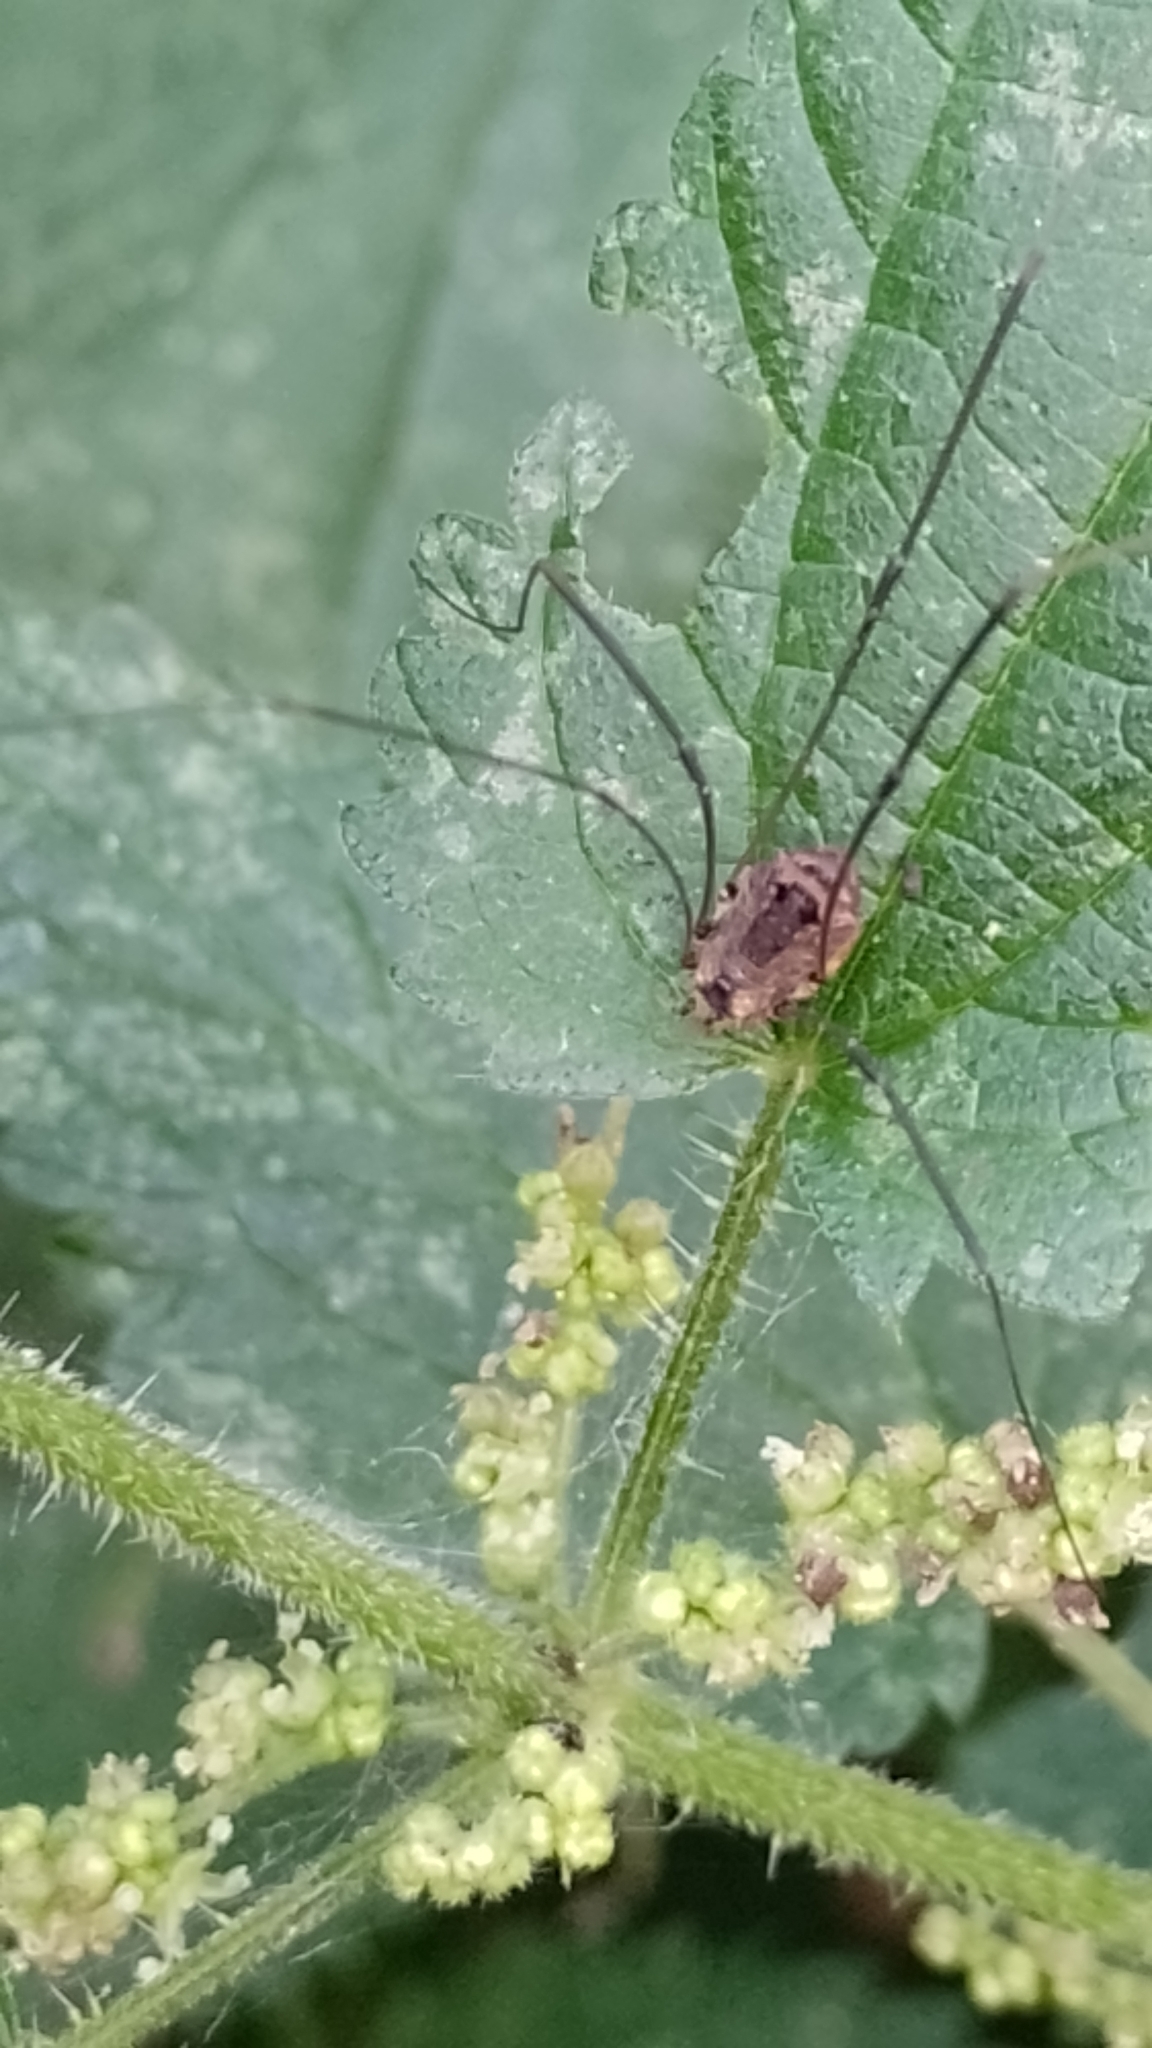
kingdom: Animalia
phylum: Arthropoda
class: Arachnida
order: Opiliones
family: Sclerosomatidae
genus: Leiobunum
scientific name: Leiobunum rotundum
